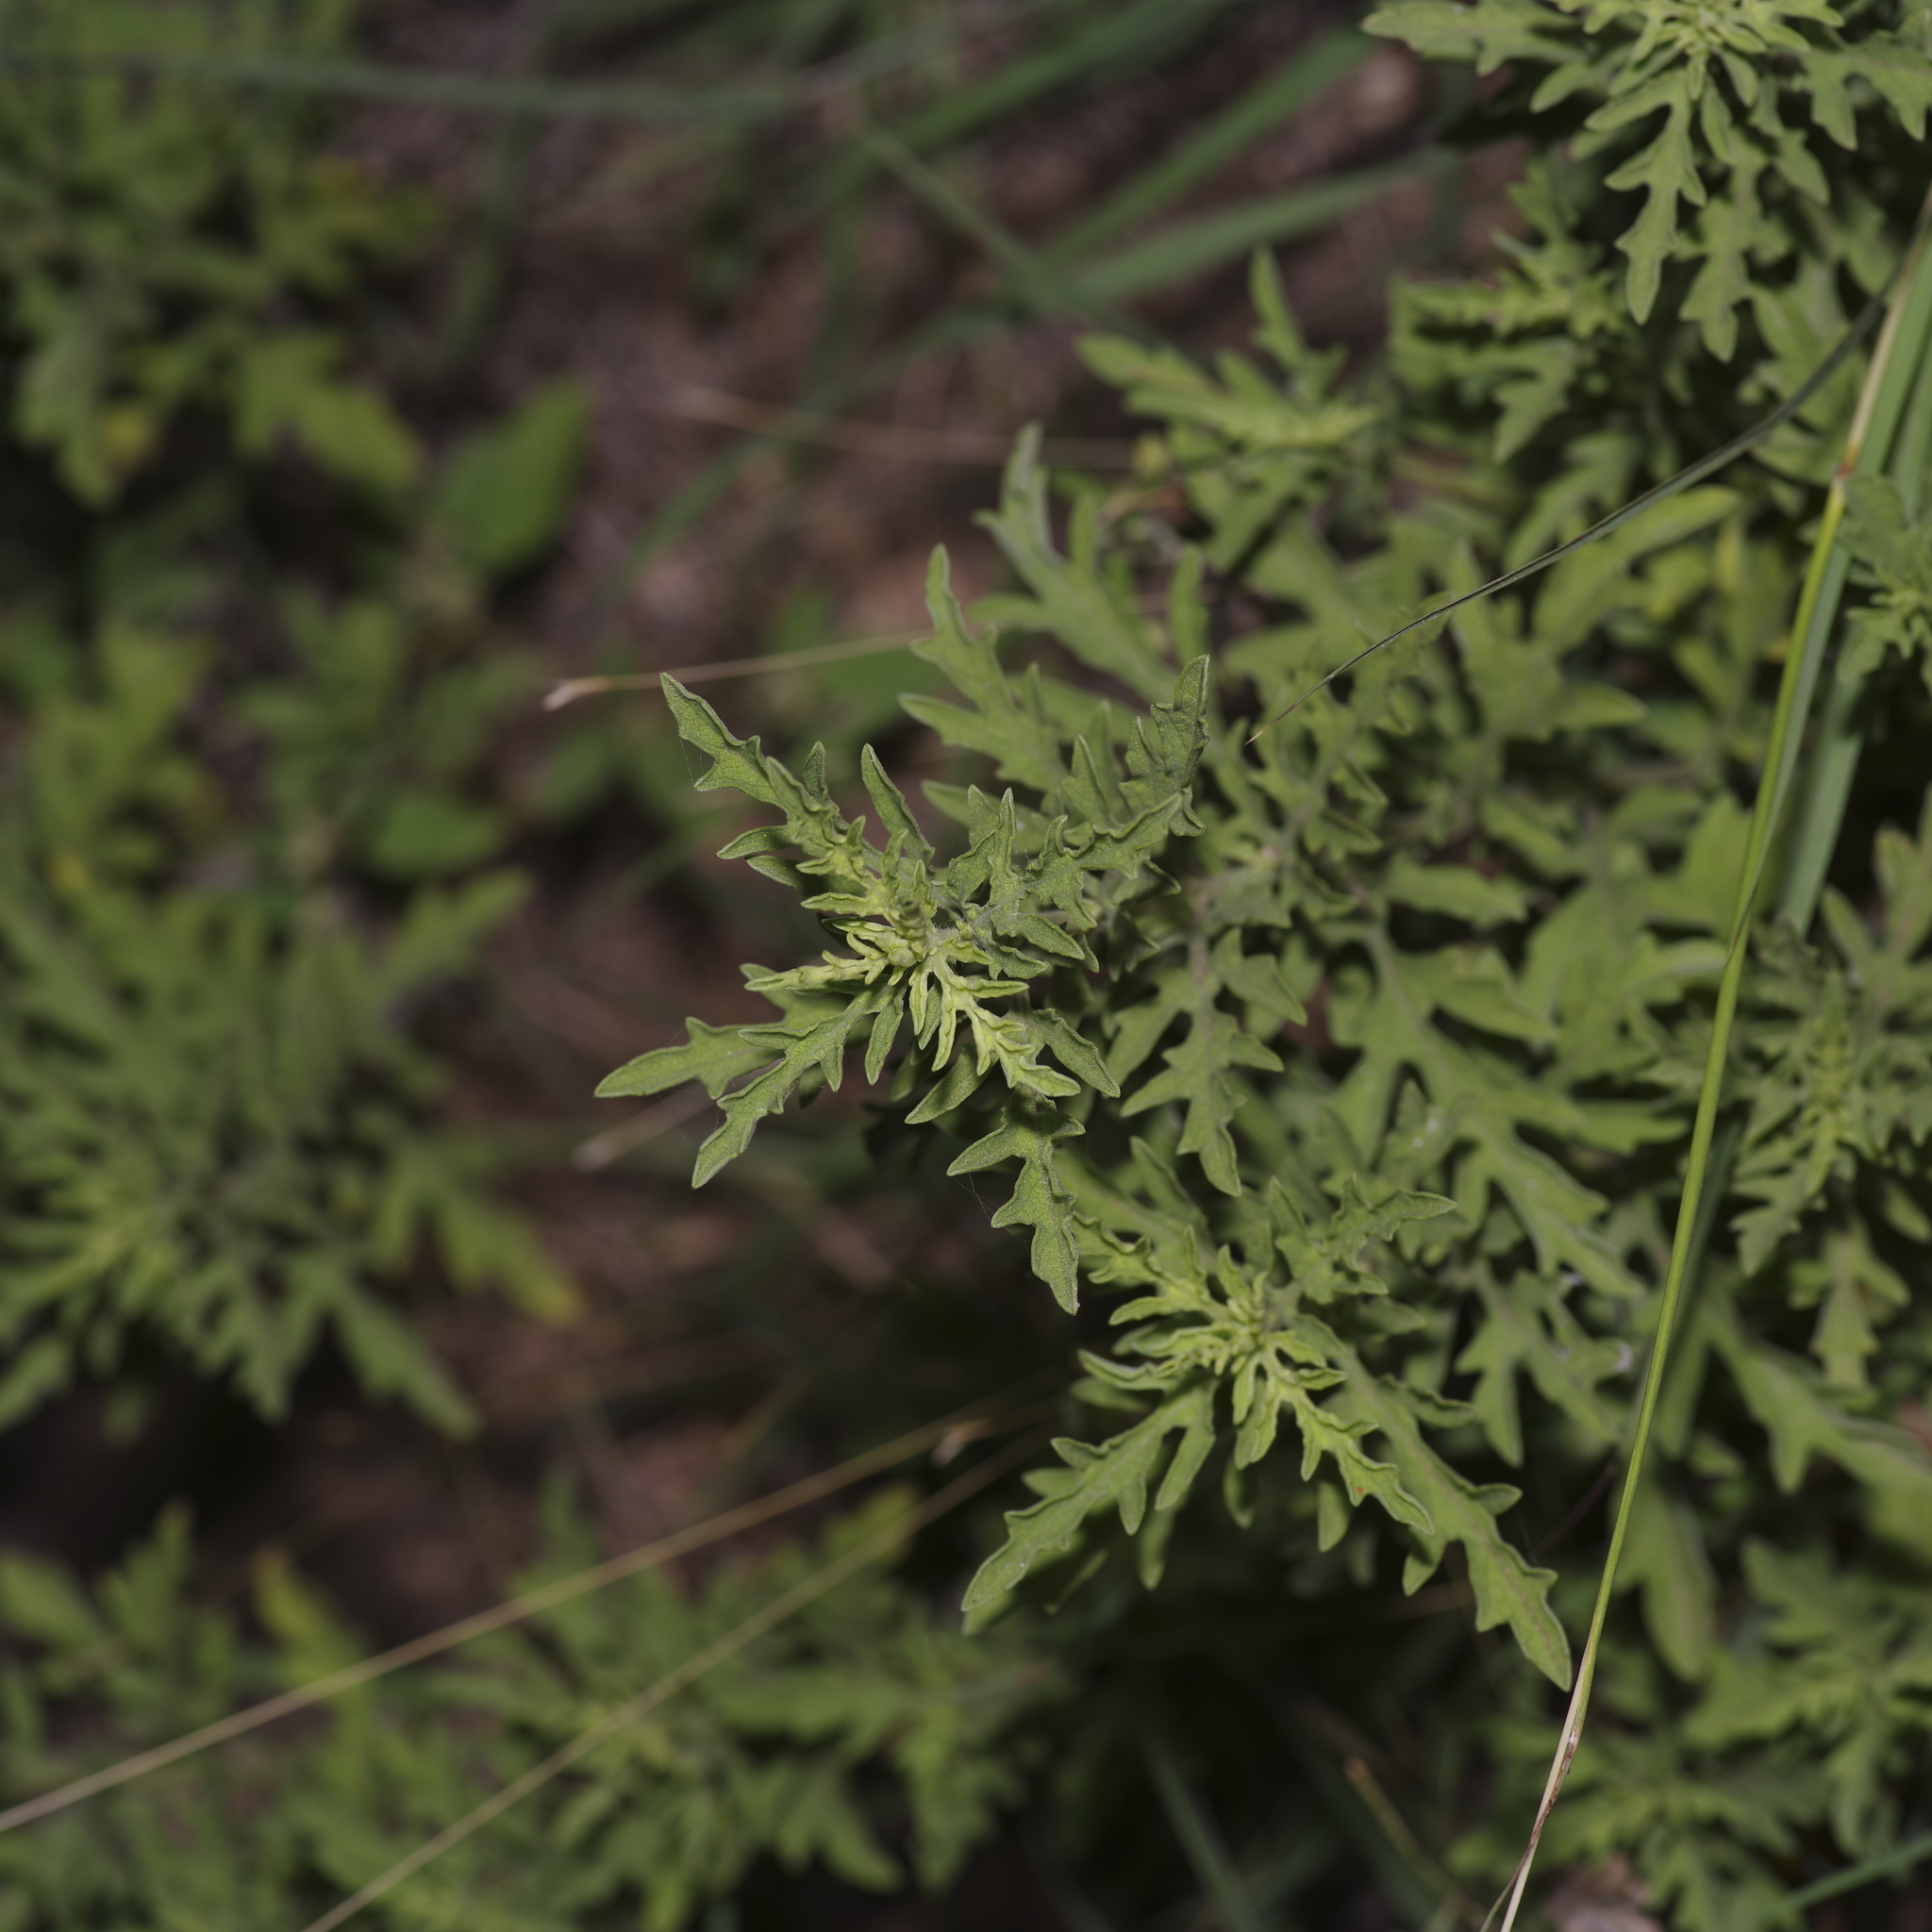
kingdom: Plantae
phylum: Tracheophyta
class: Magnoliopsida
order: Asterales
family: Asteraceae
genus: Ambrosia
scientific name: Ambrosia psilostachya
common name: Perennial ragweed
